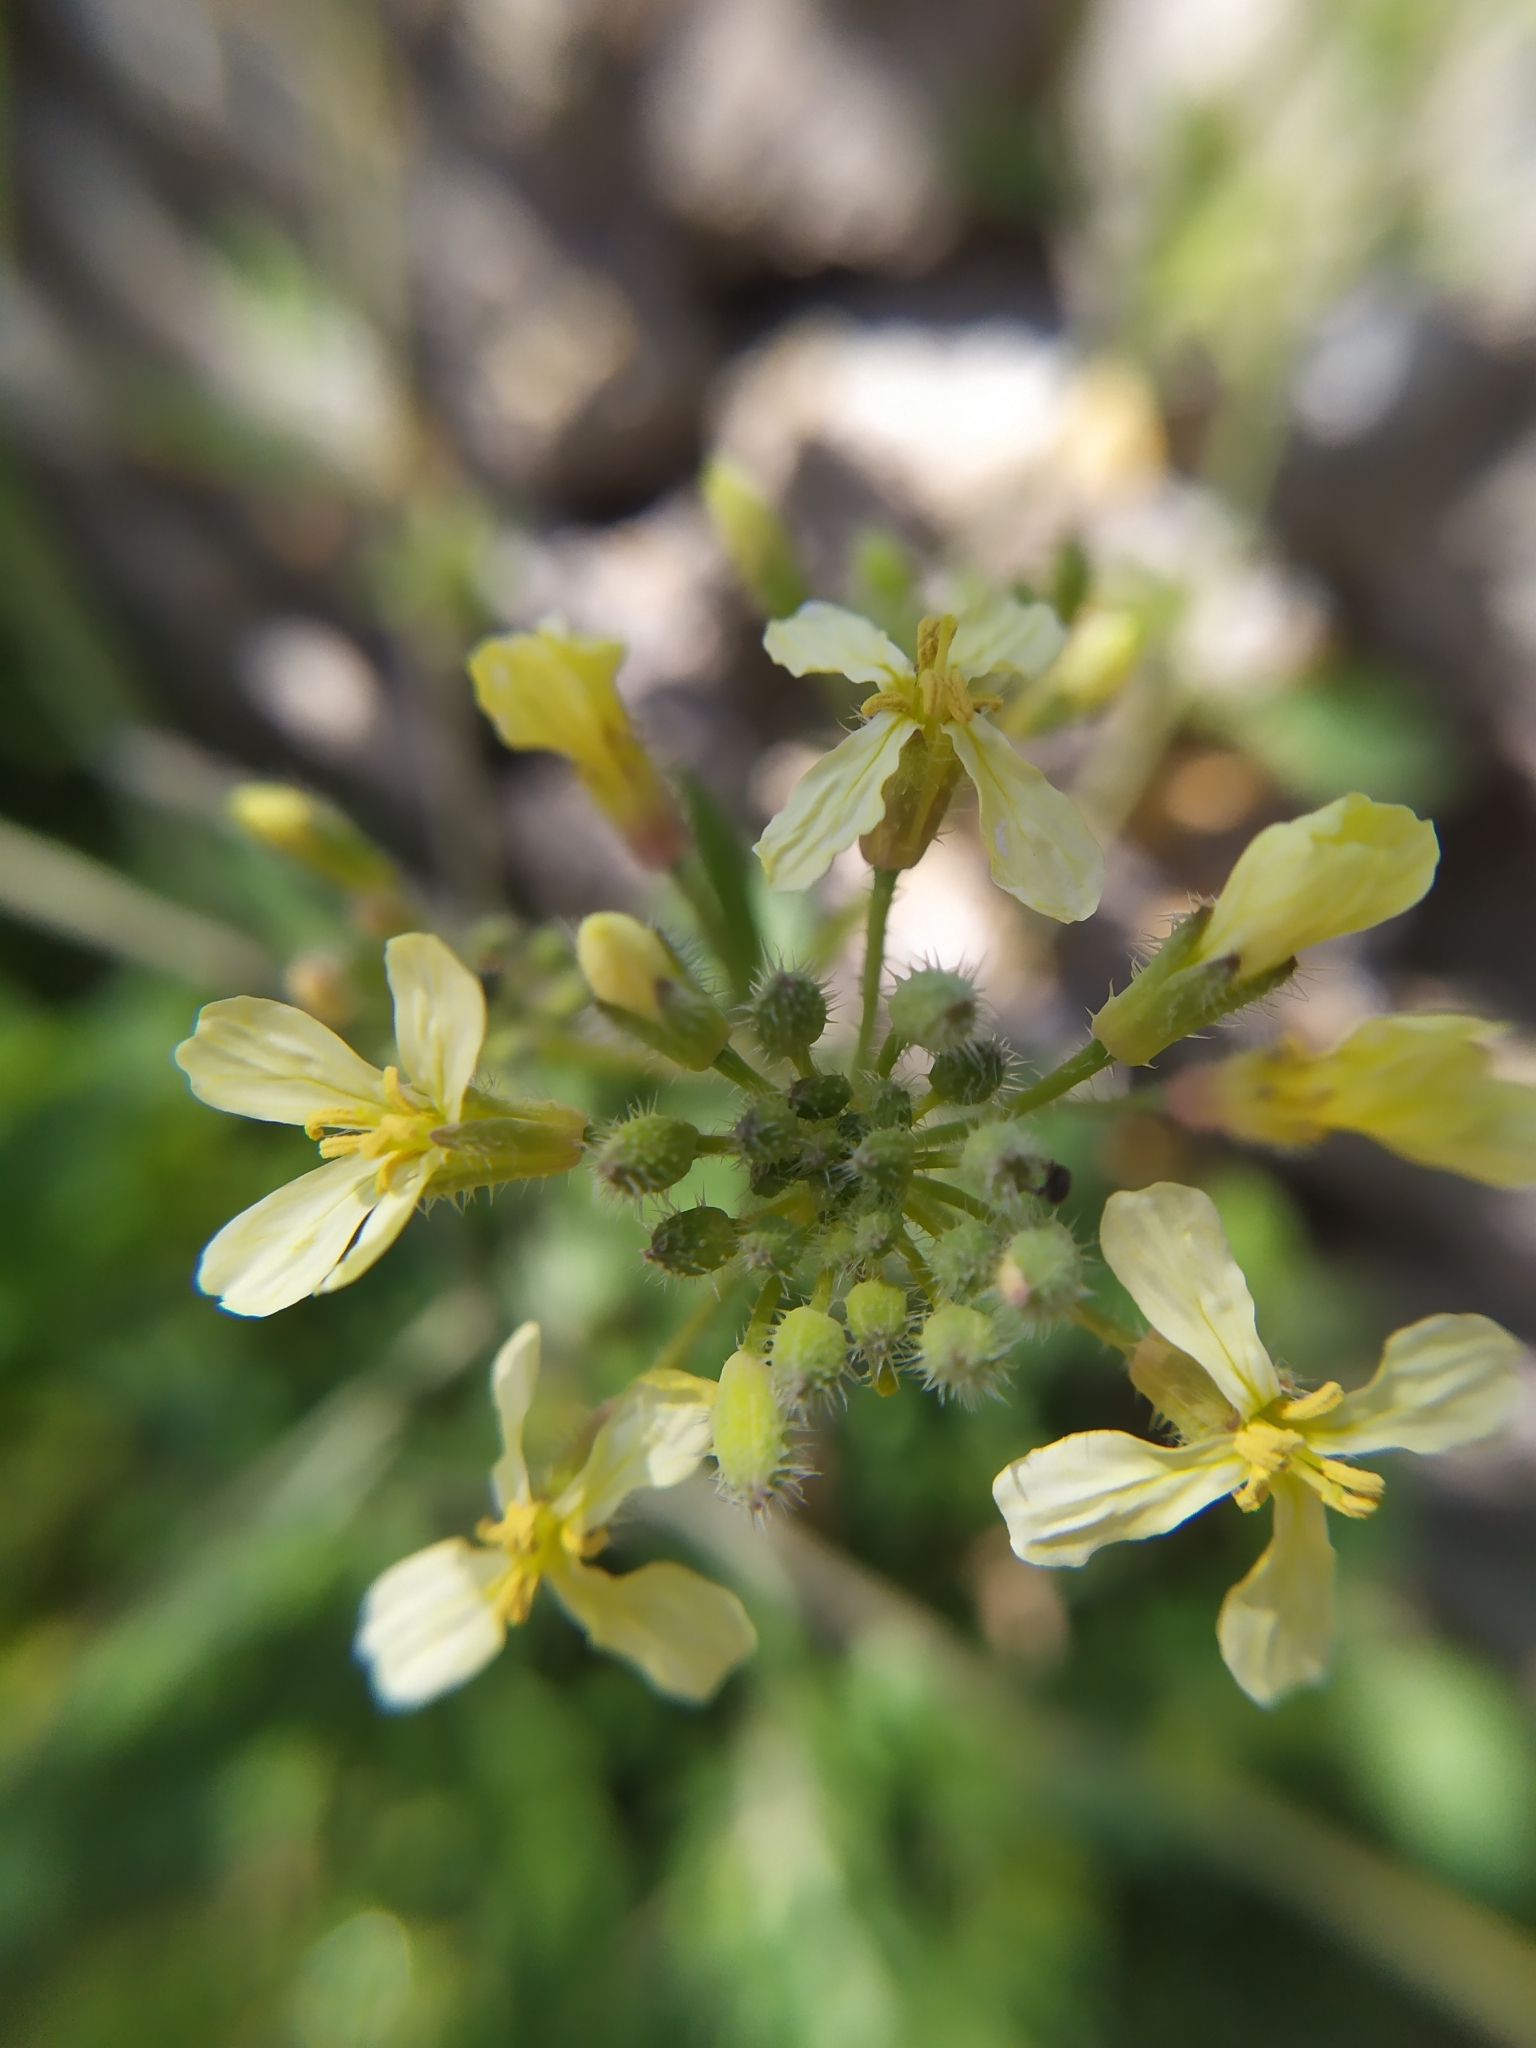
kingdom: Plantae
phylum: Tracheophyta
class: Magnoliopsida
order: Brassicales
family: Brassicaceae
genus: Raphanus
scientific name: Raphanus raphanistrum
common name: Wild radish
